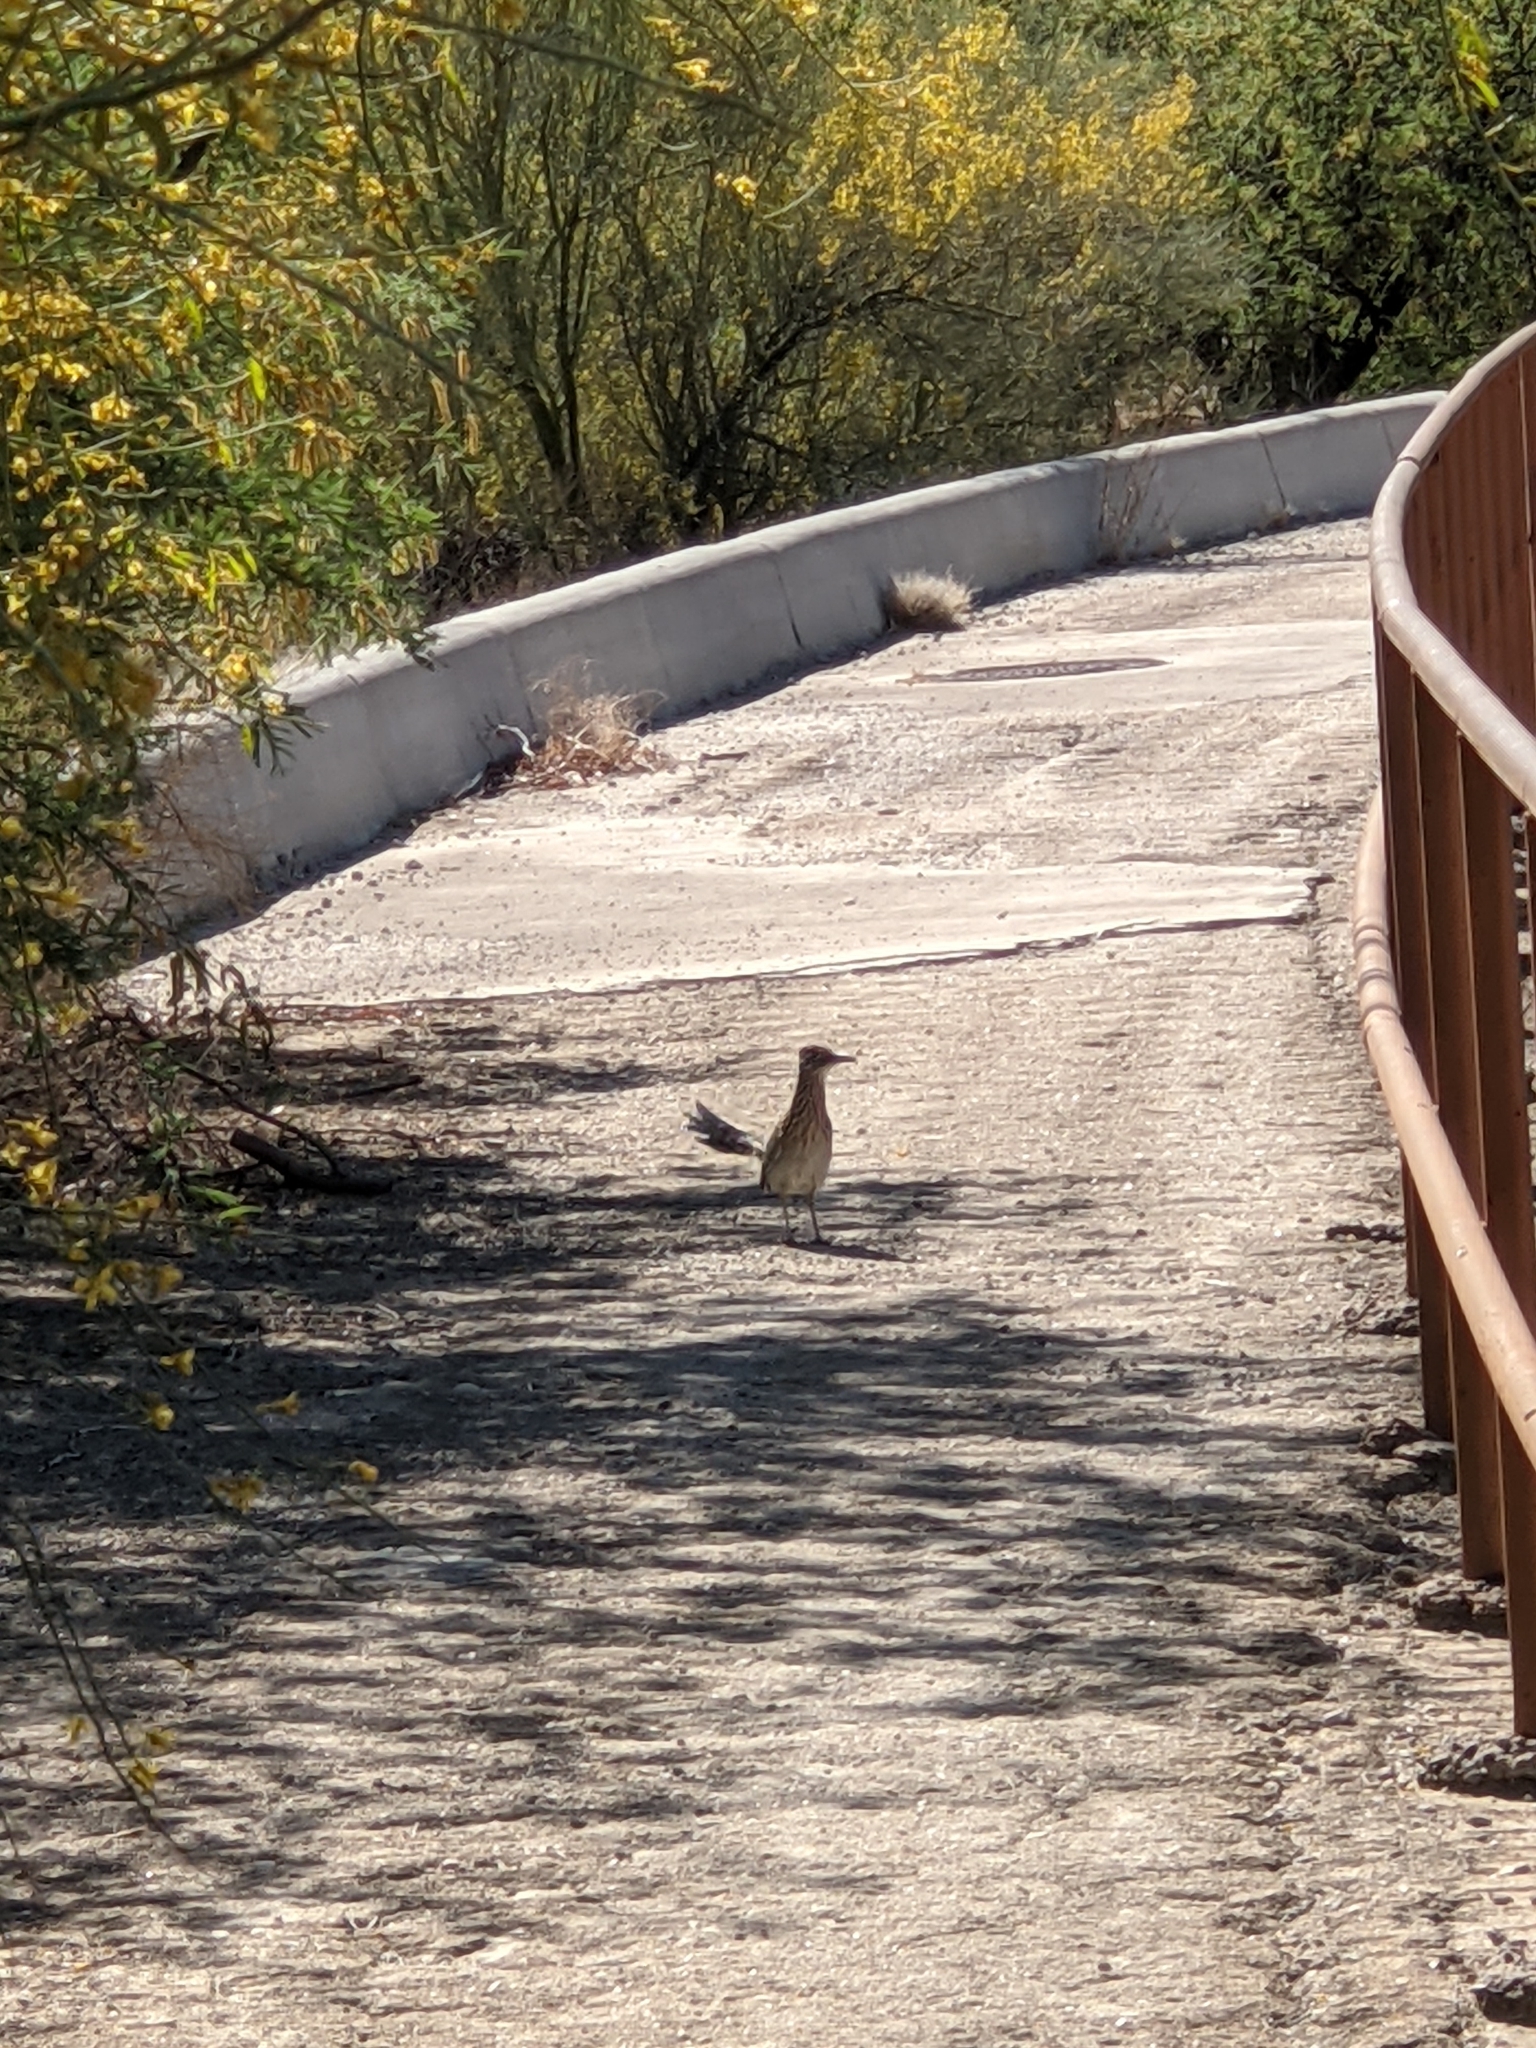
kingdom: Animalia
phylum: Chordata
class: Aves
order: Cuculiformes
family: Cuculidae
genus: Geococcyx
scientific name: Geococcyx californianus
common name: Greater roadrunner
